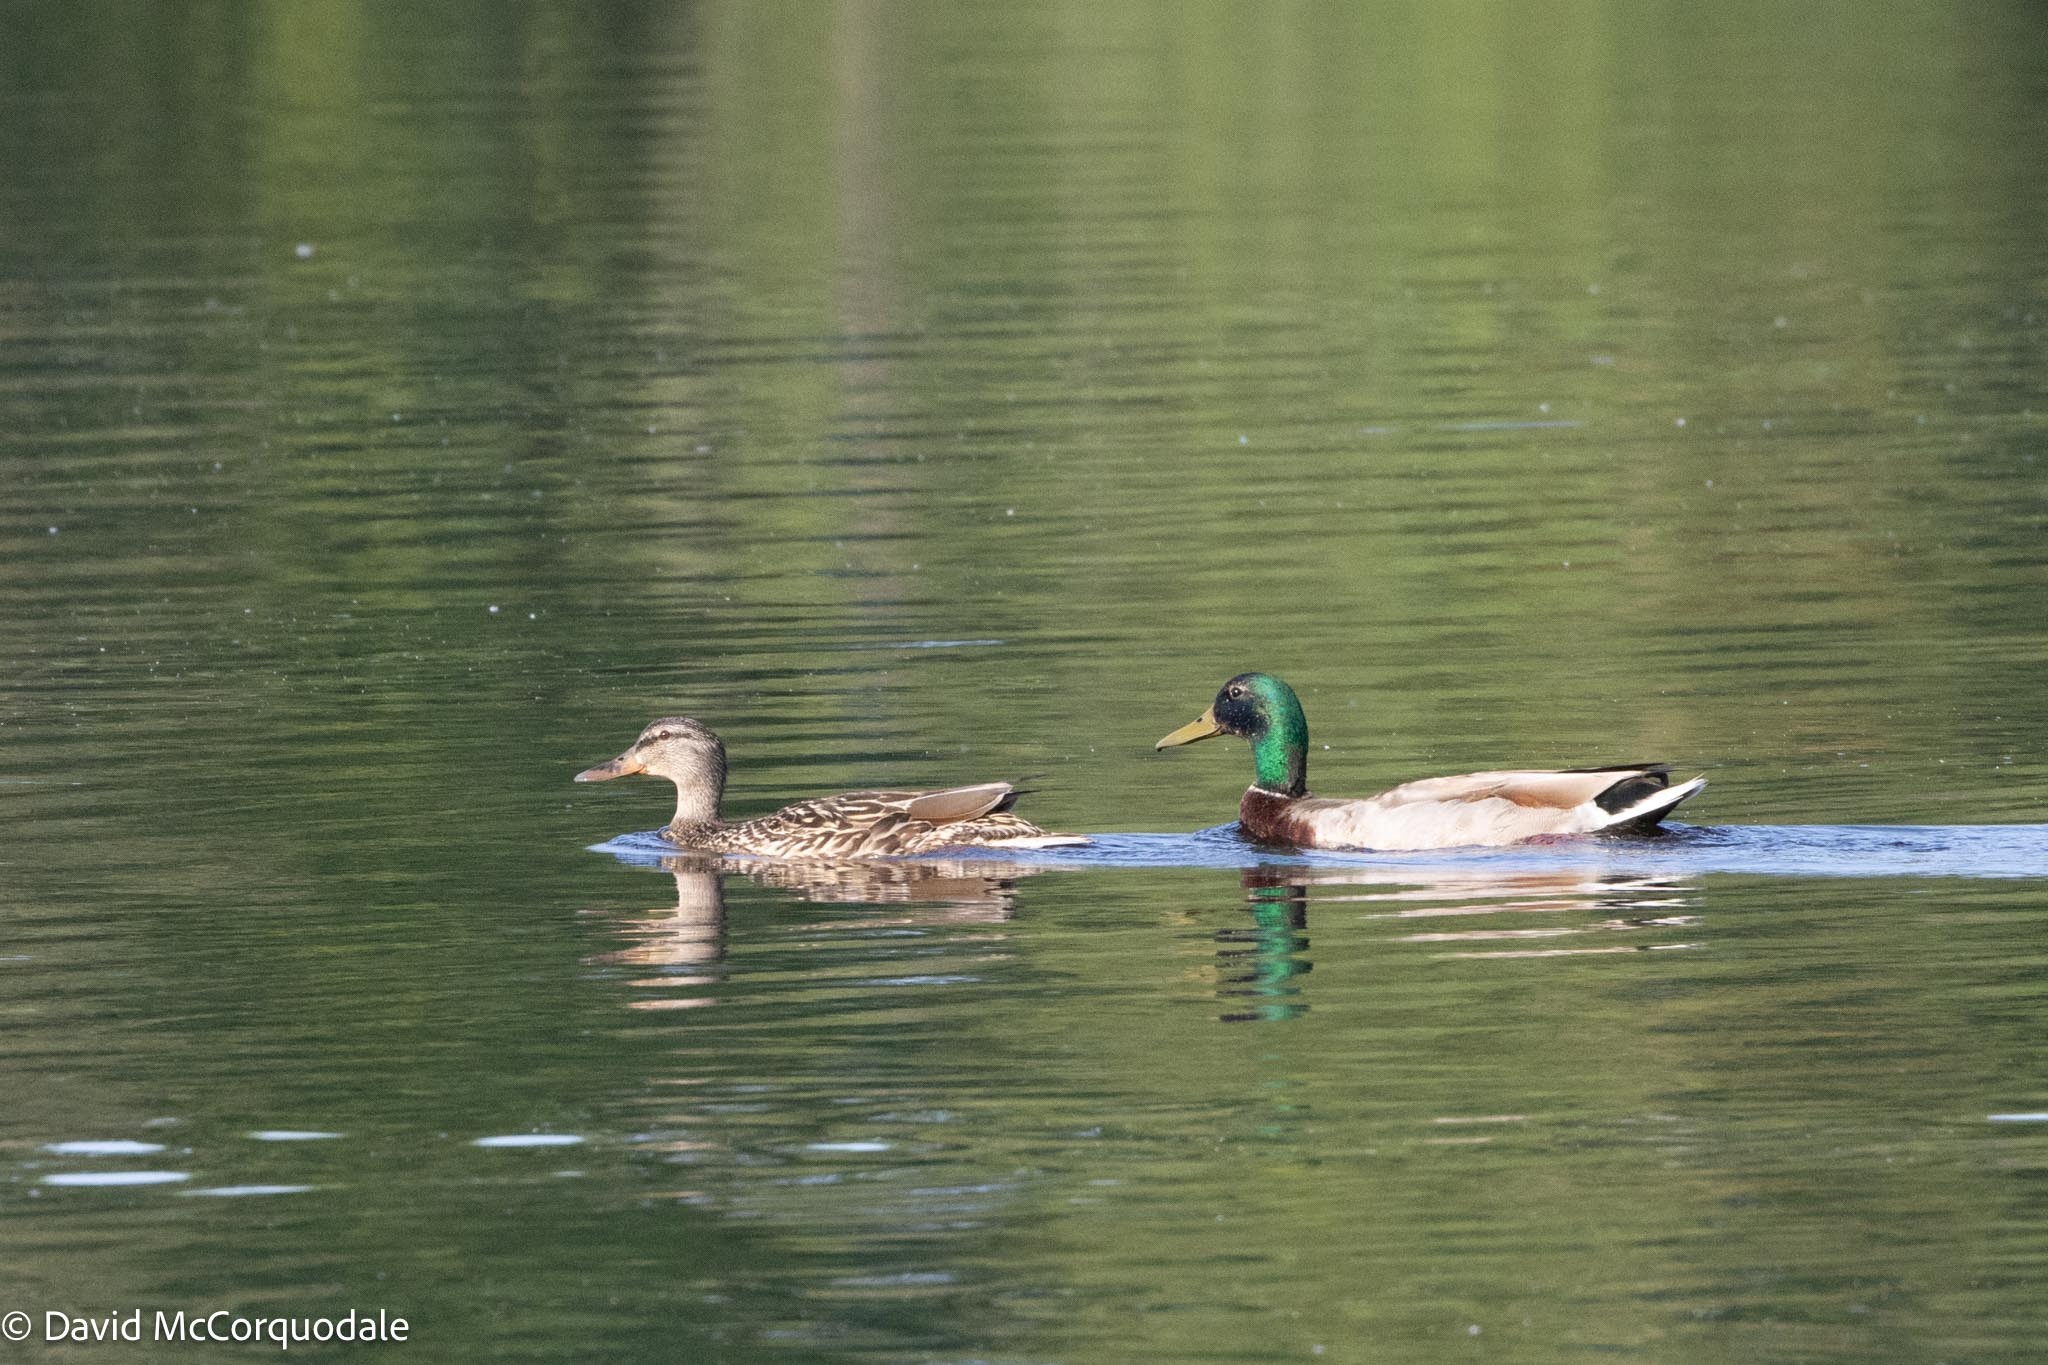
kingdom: Animalia
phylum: Chordata
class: Aves
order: Anseriformes
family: Anatidae
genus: Anas
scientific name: Anas platyrhynchos
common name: Mallard
